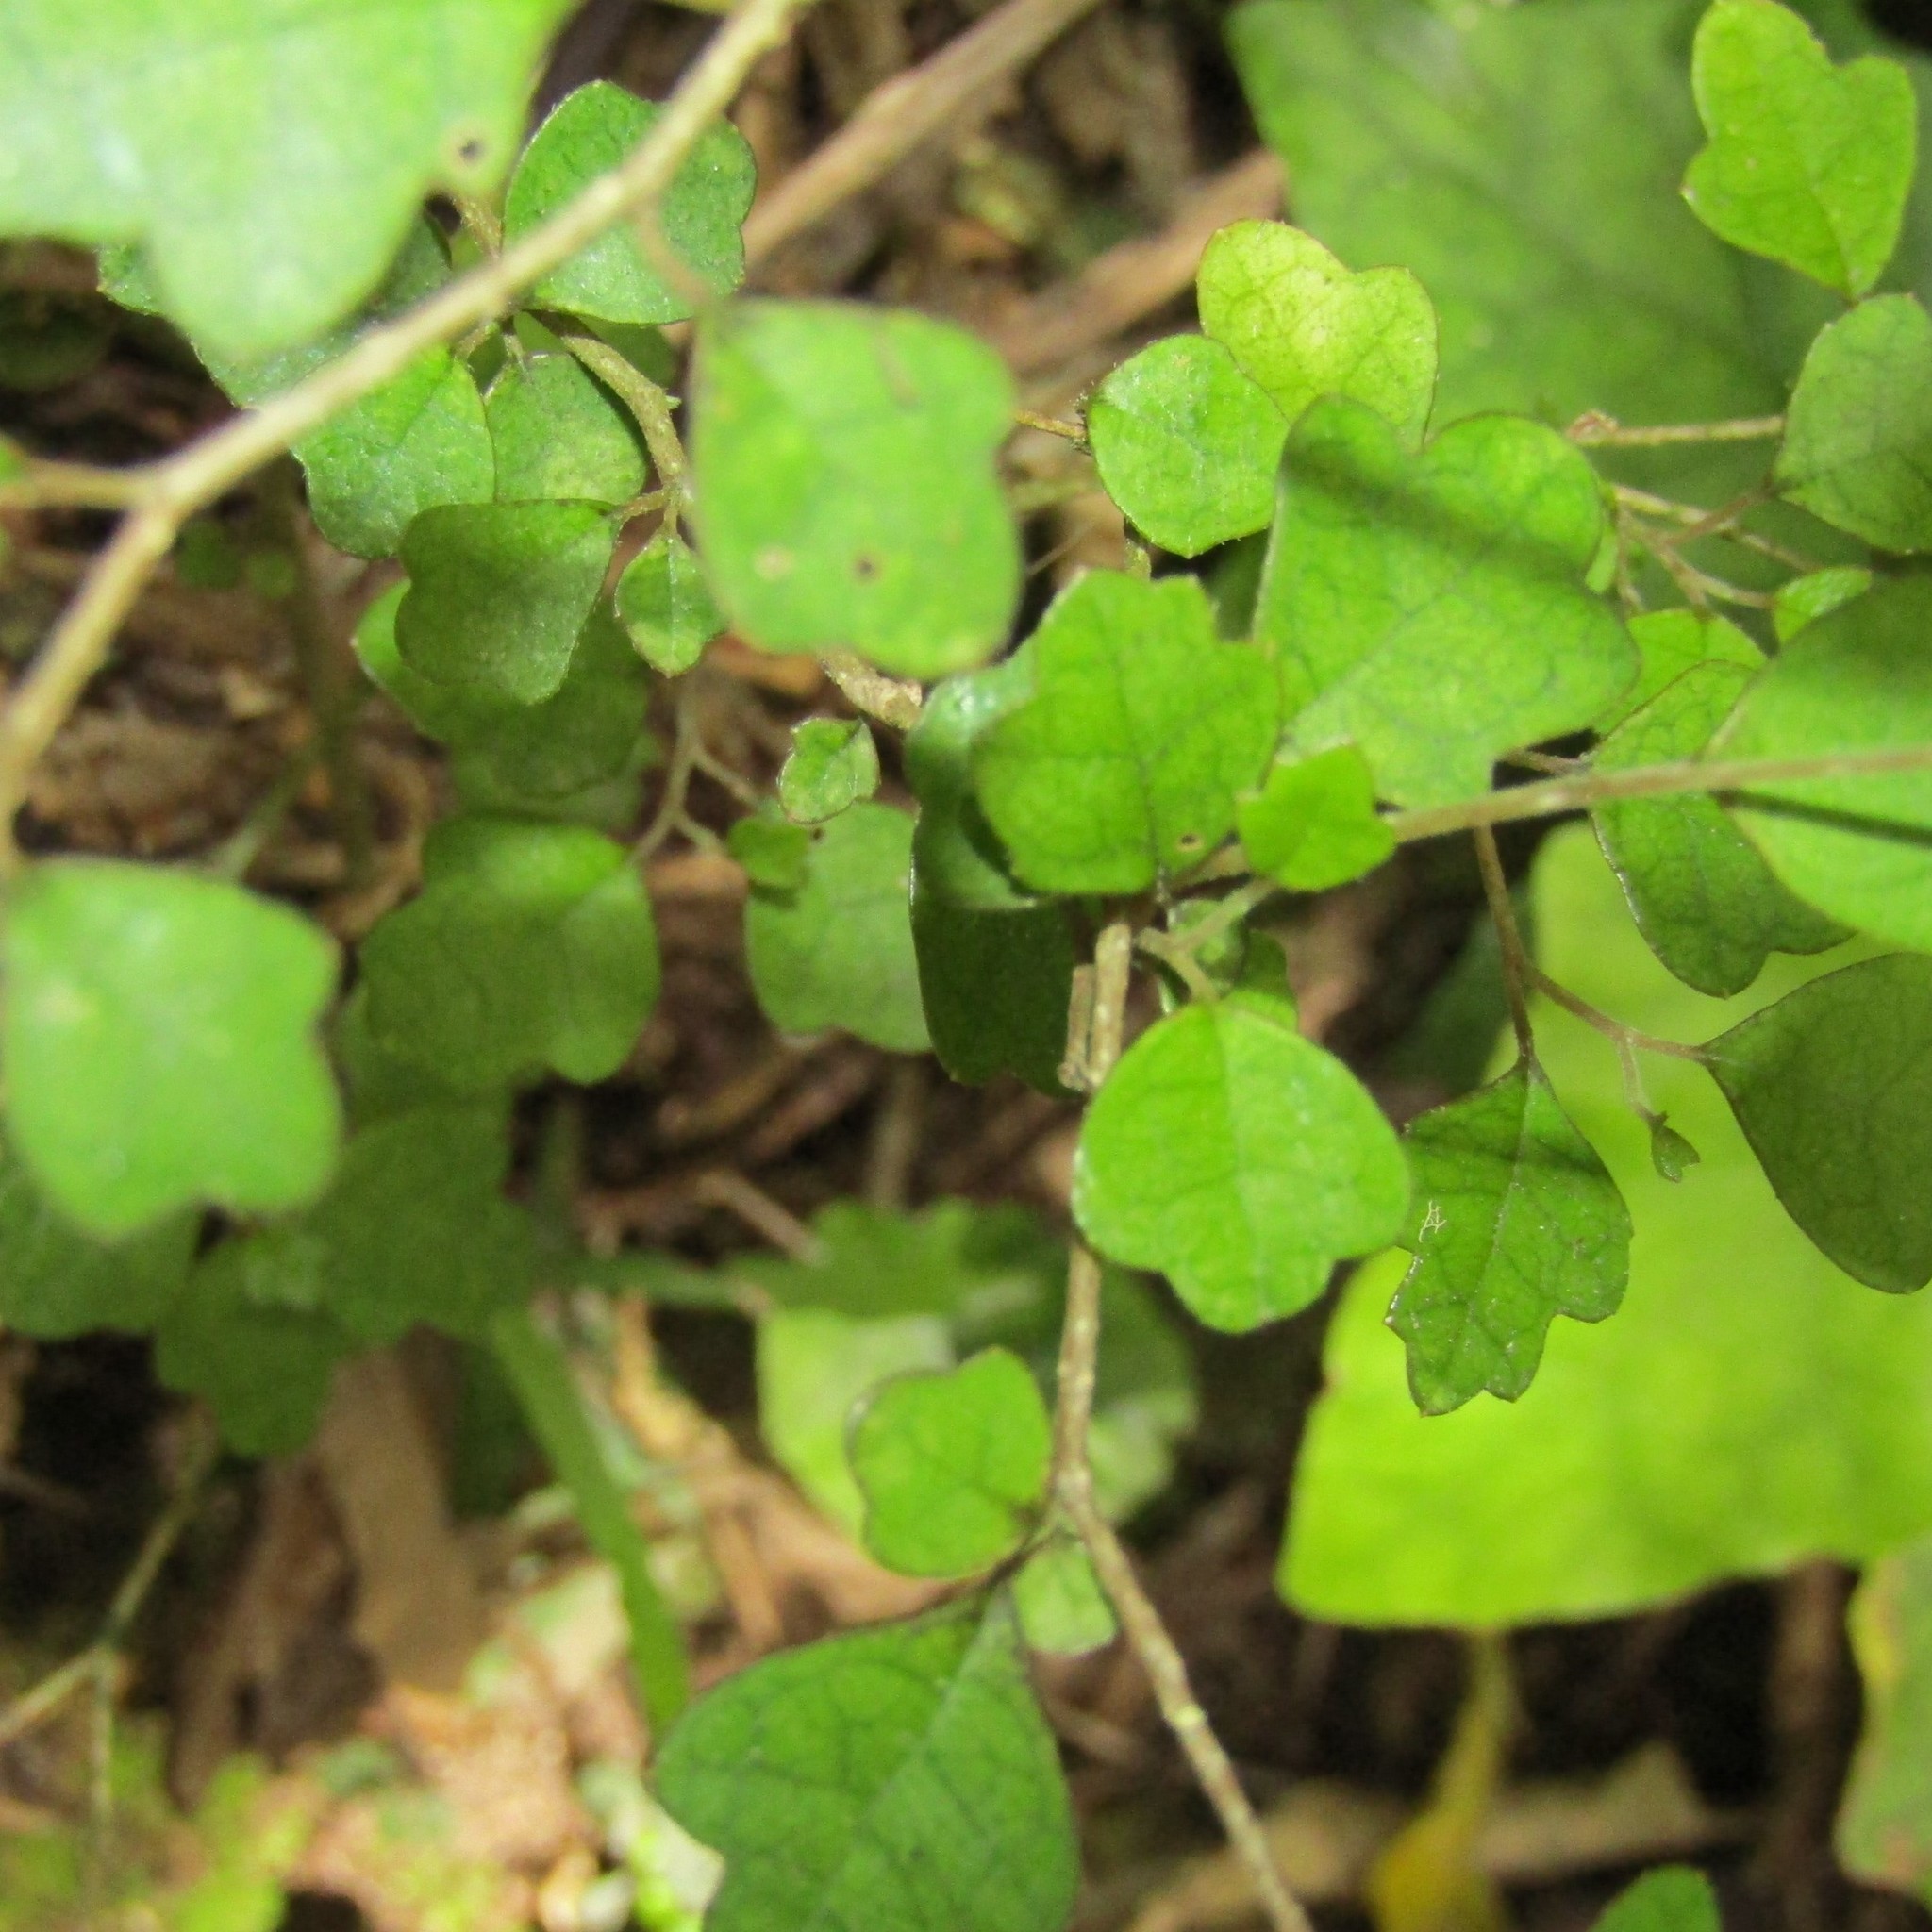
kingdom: Plantae
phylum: Tracheophyta
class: Magnoliopsida
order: Apiales
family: Pennantiaceae
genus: Pennantia
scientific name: Pennantia corymbosa
